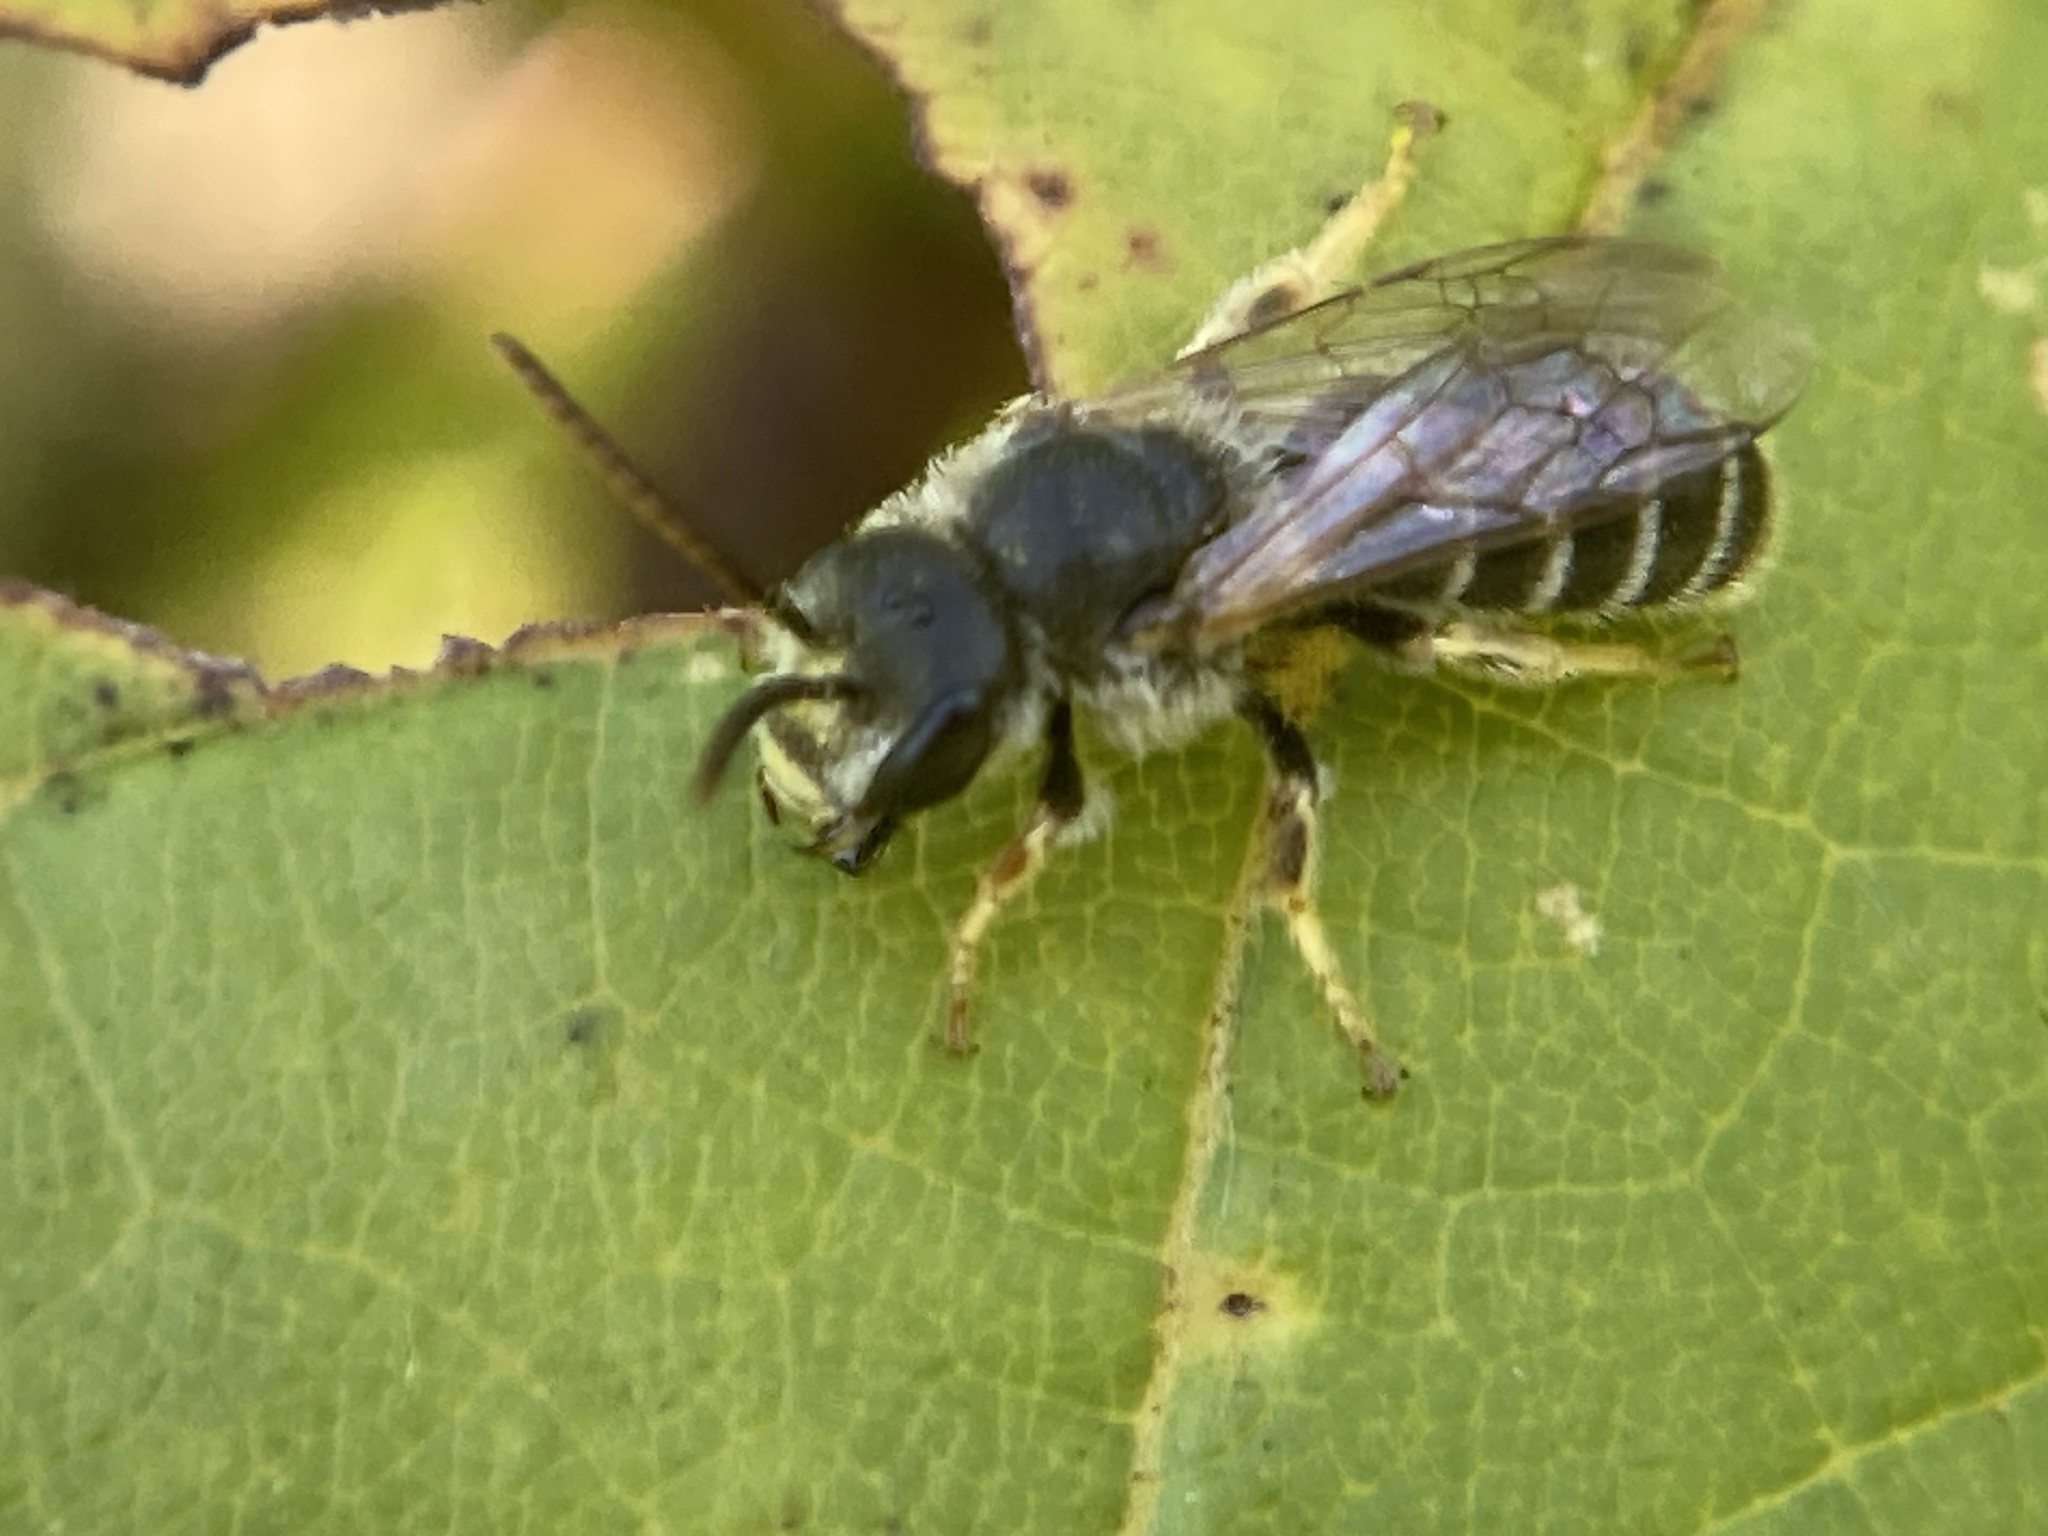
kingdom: Animalia
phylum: Arthropoda
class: Insecta
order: Hymenoptera
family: Halictidae
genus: Halictus
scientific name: Halictus ligatus
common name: Ligated furrow bee
